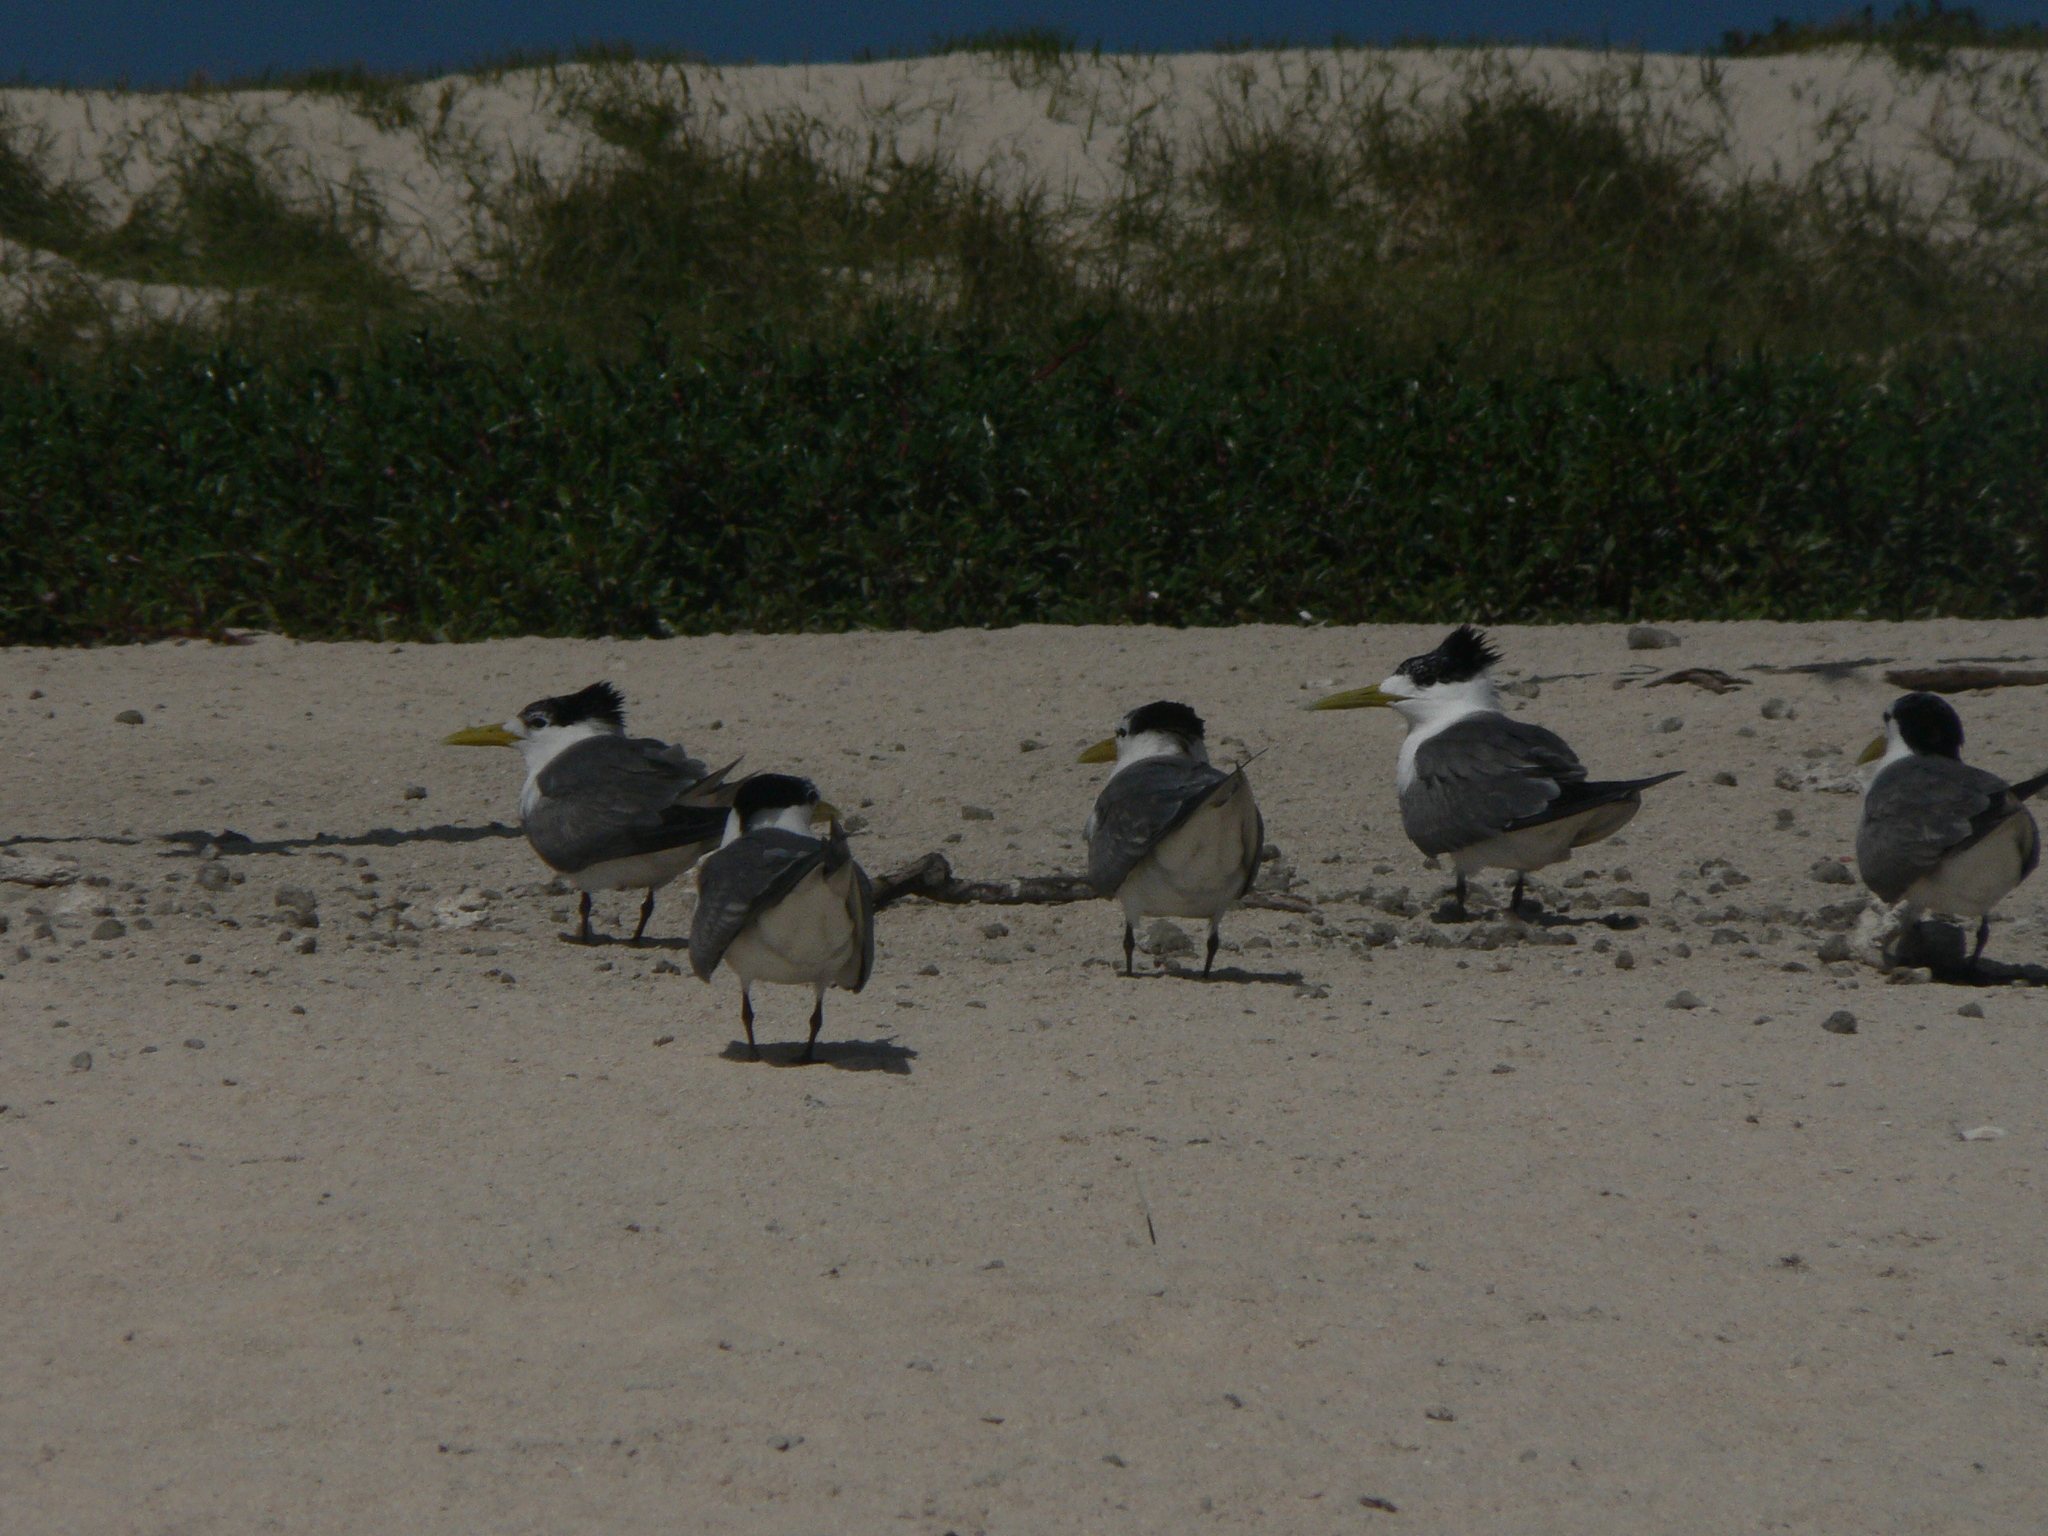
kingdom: Animalia
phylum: Chordata
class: Aves
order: Charadriiformes
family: Laridae
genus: Thalasseus
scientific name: Thalasseus bergii
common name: Greater crested tern
